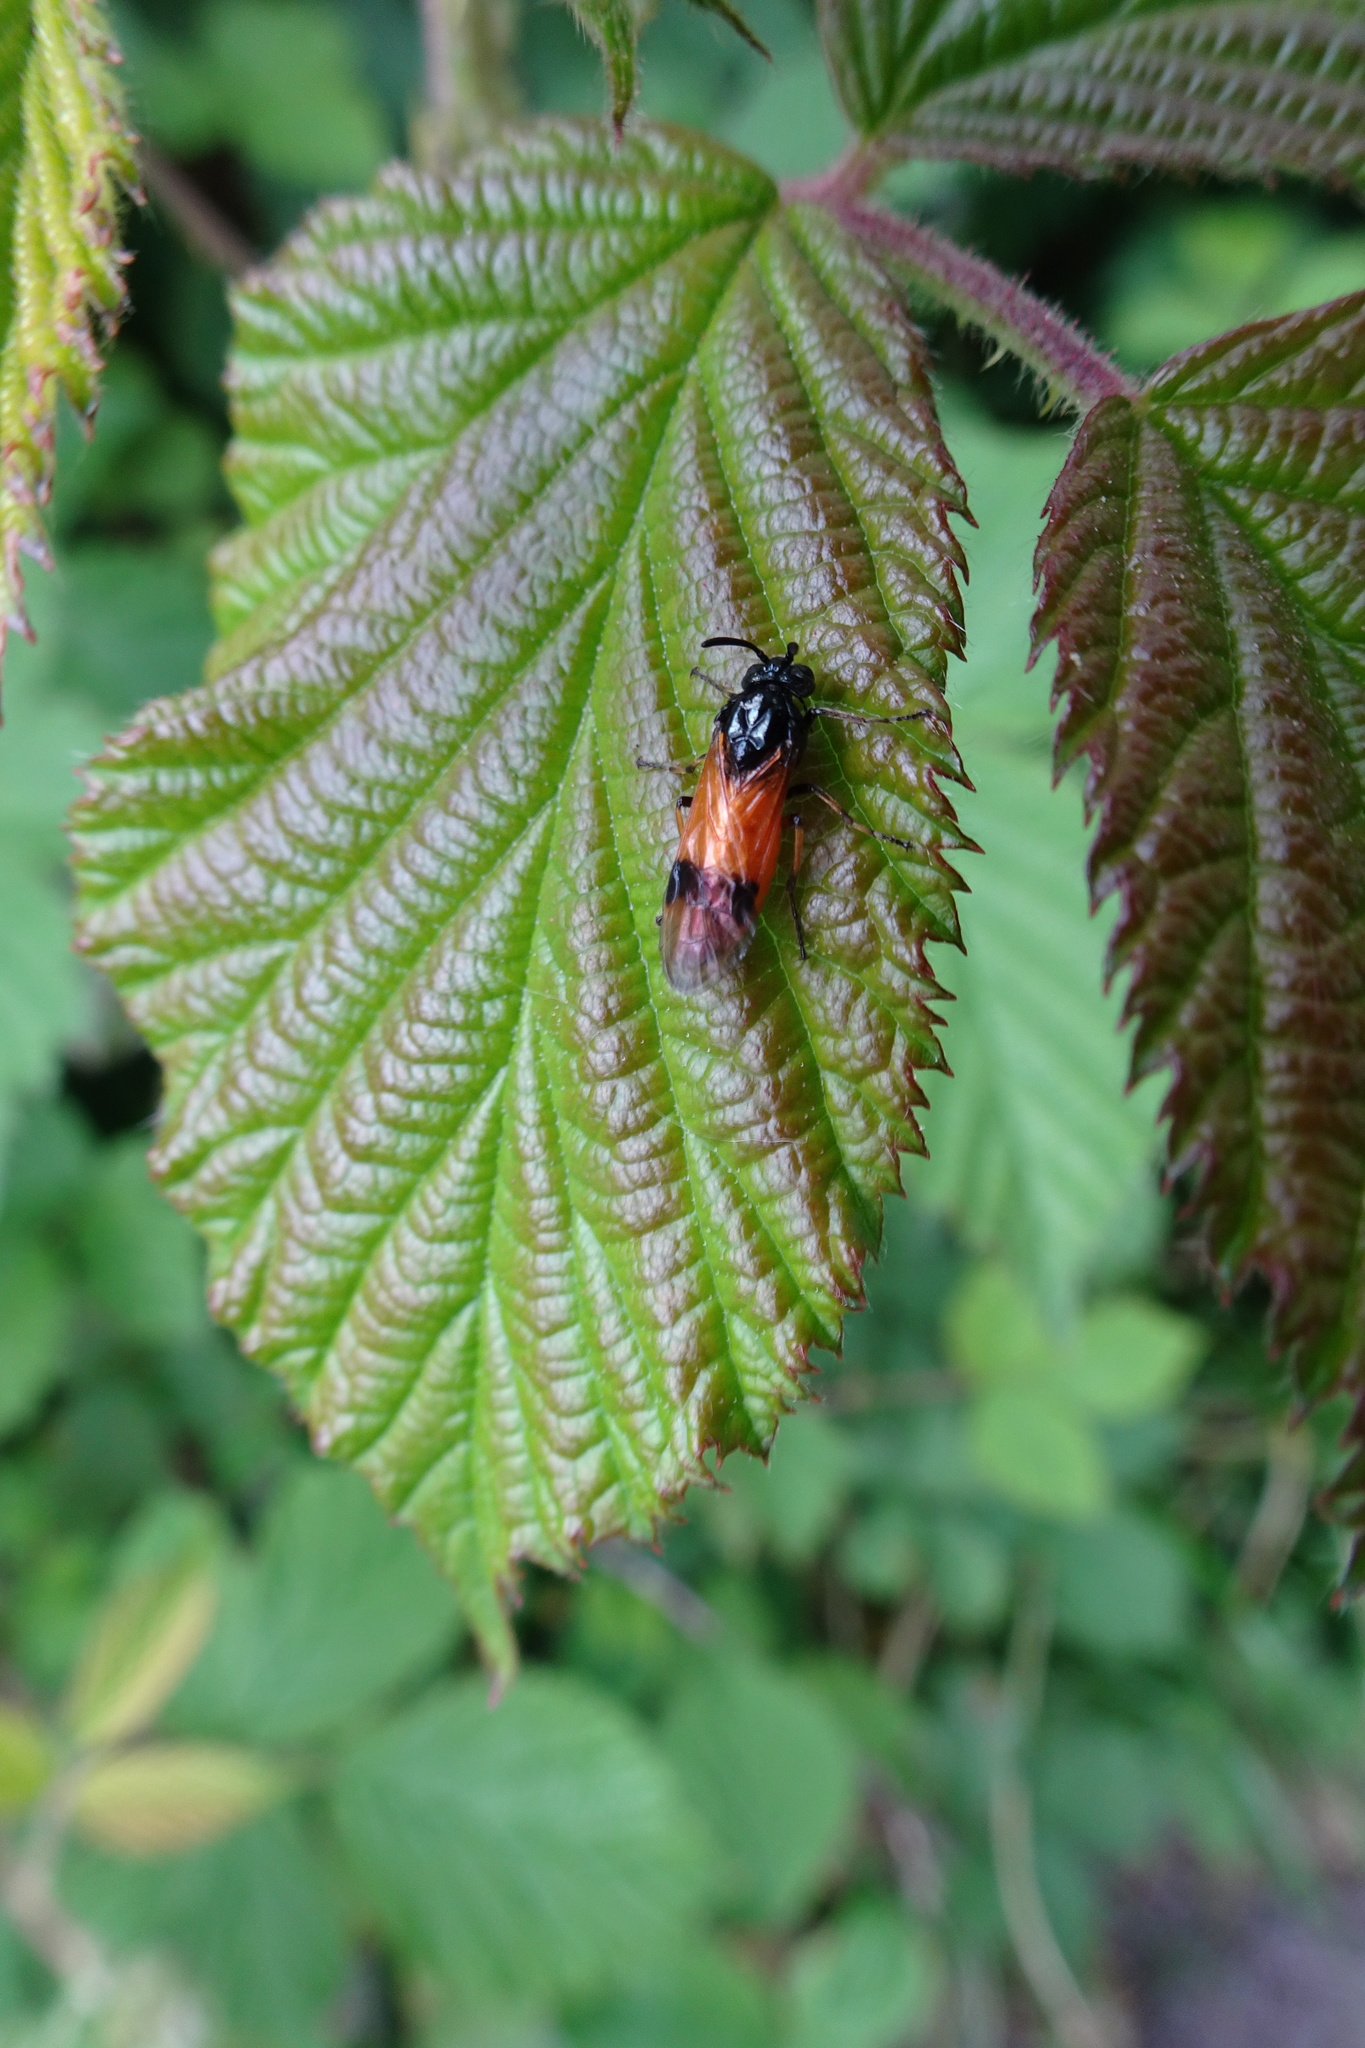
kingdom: Animalia
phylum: Arthropoda
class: Insecta
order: Hymenoptera
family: Argidae
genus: Arge
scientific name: Arge cyanocrocea
